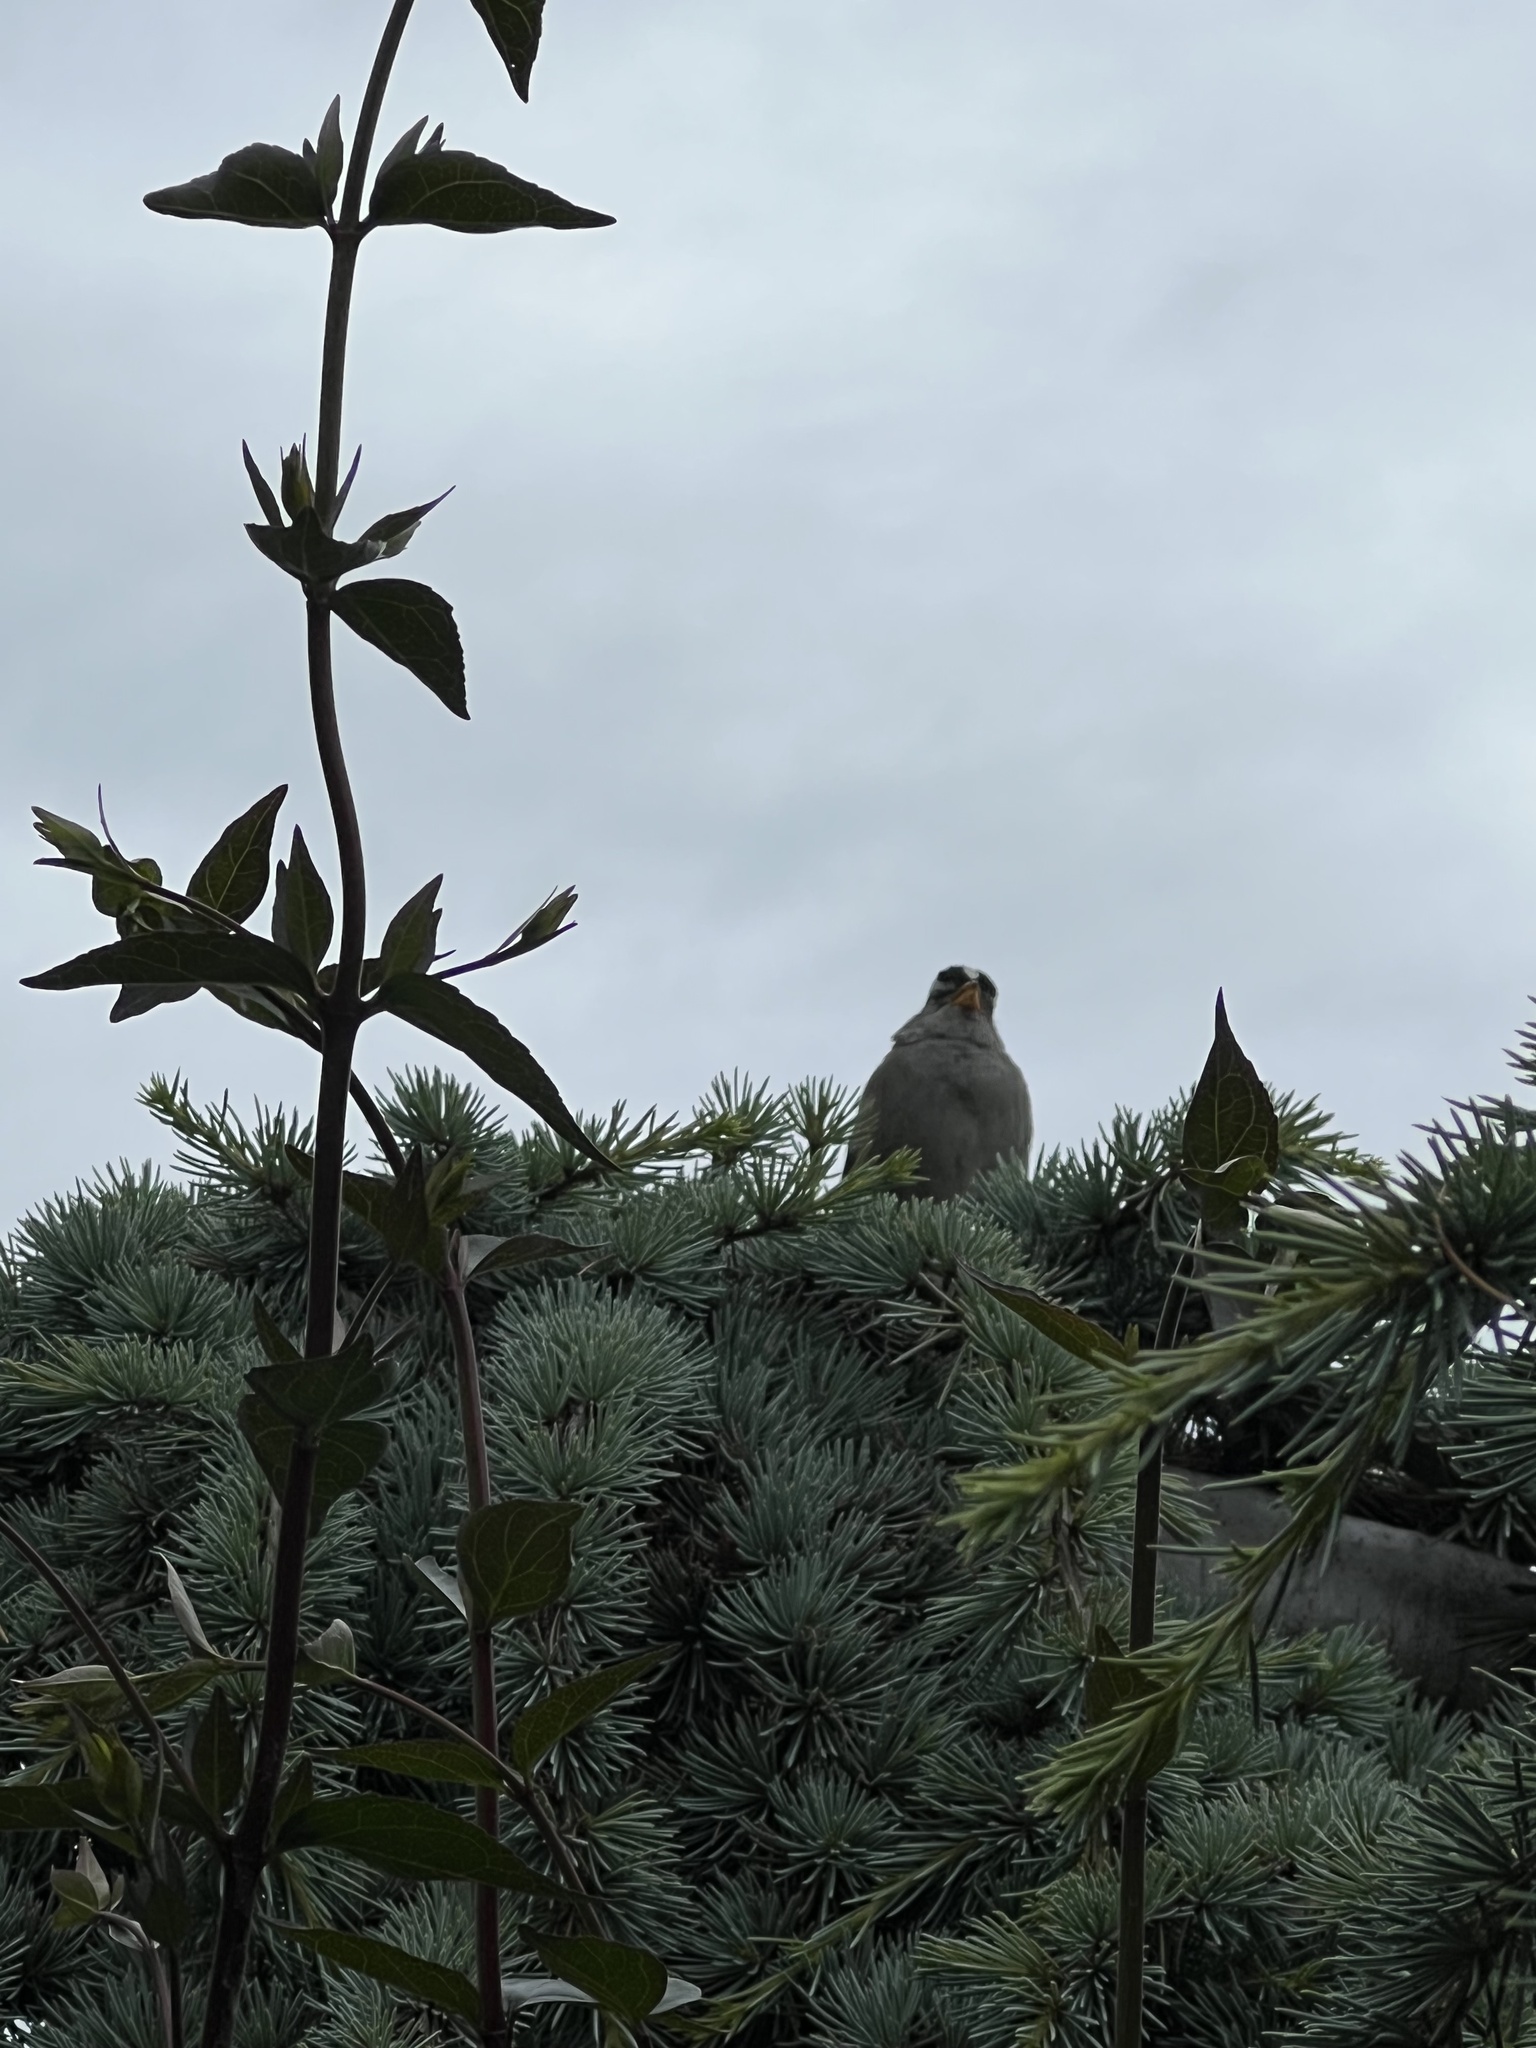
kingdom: Animalia
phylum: Chordata
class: Aves
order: Passeriformes
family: Passerellidae
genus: Zonotrichia
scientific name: Zonotrichia leucophrys
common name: White-crowned sparrow
